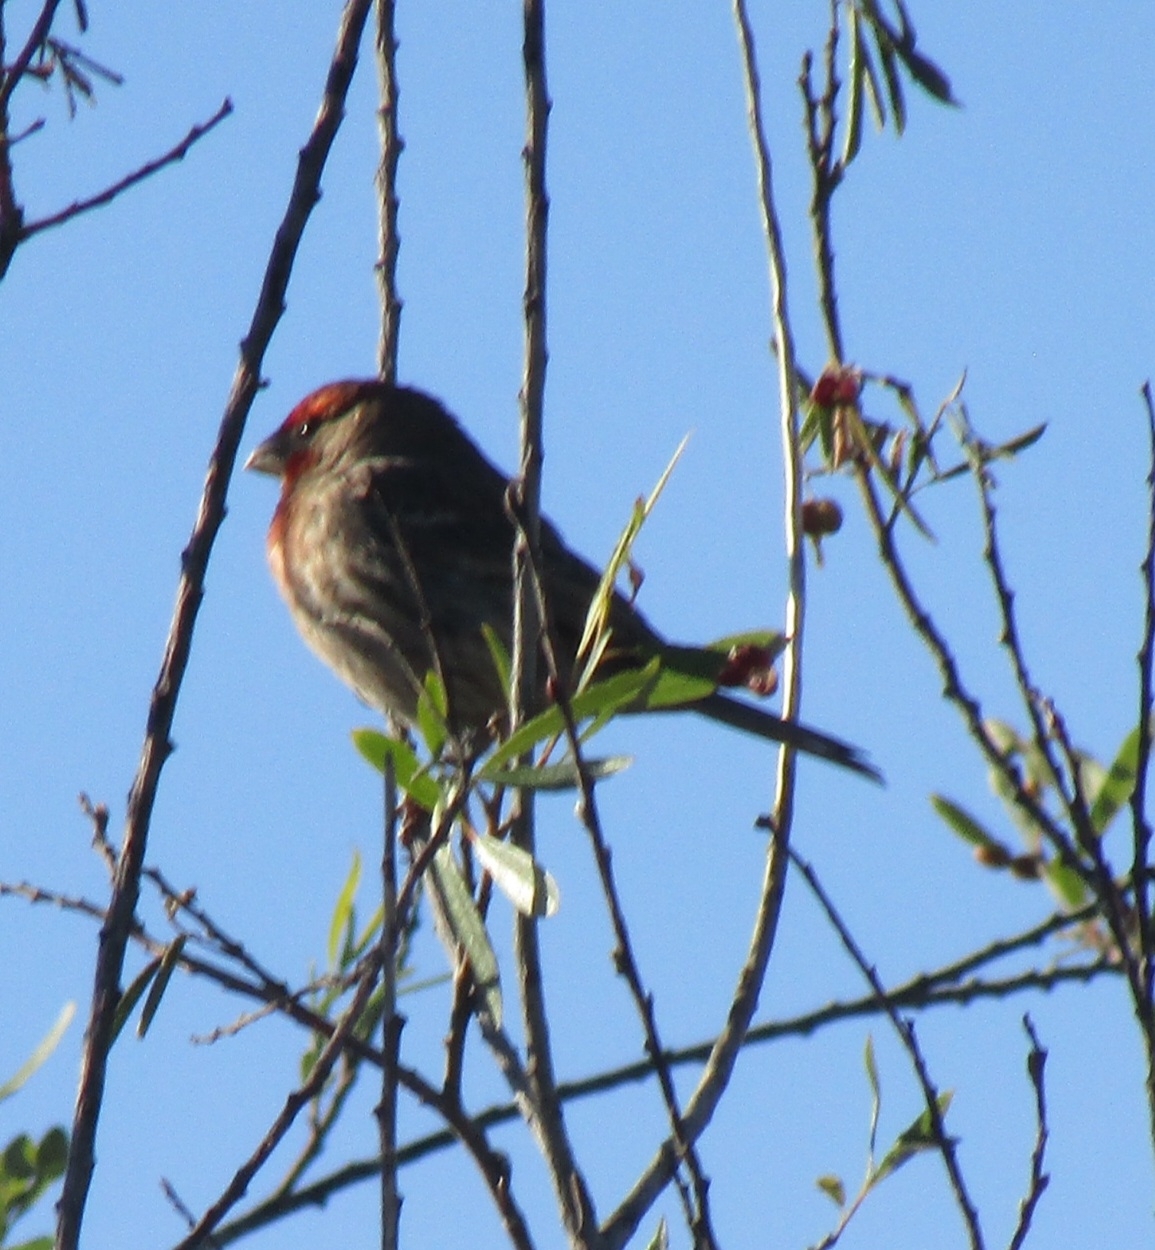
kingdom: Animalia
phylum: Chordata
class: Aves
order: Passeriformes
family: Fringillidae
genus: Haemorhous
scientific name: Haemorhous mexicanus
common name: House finch
